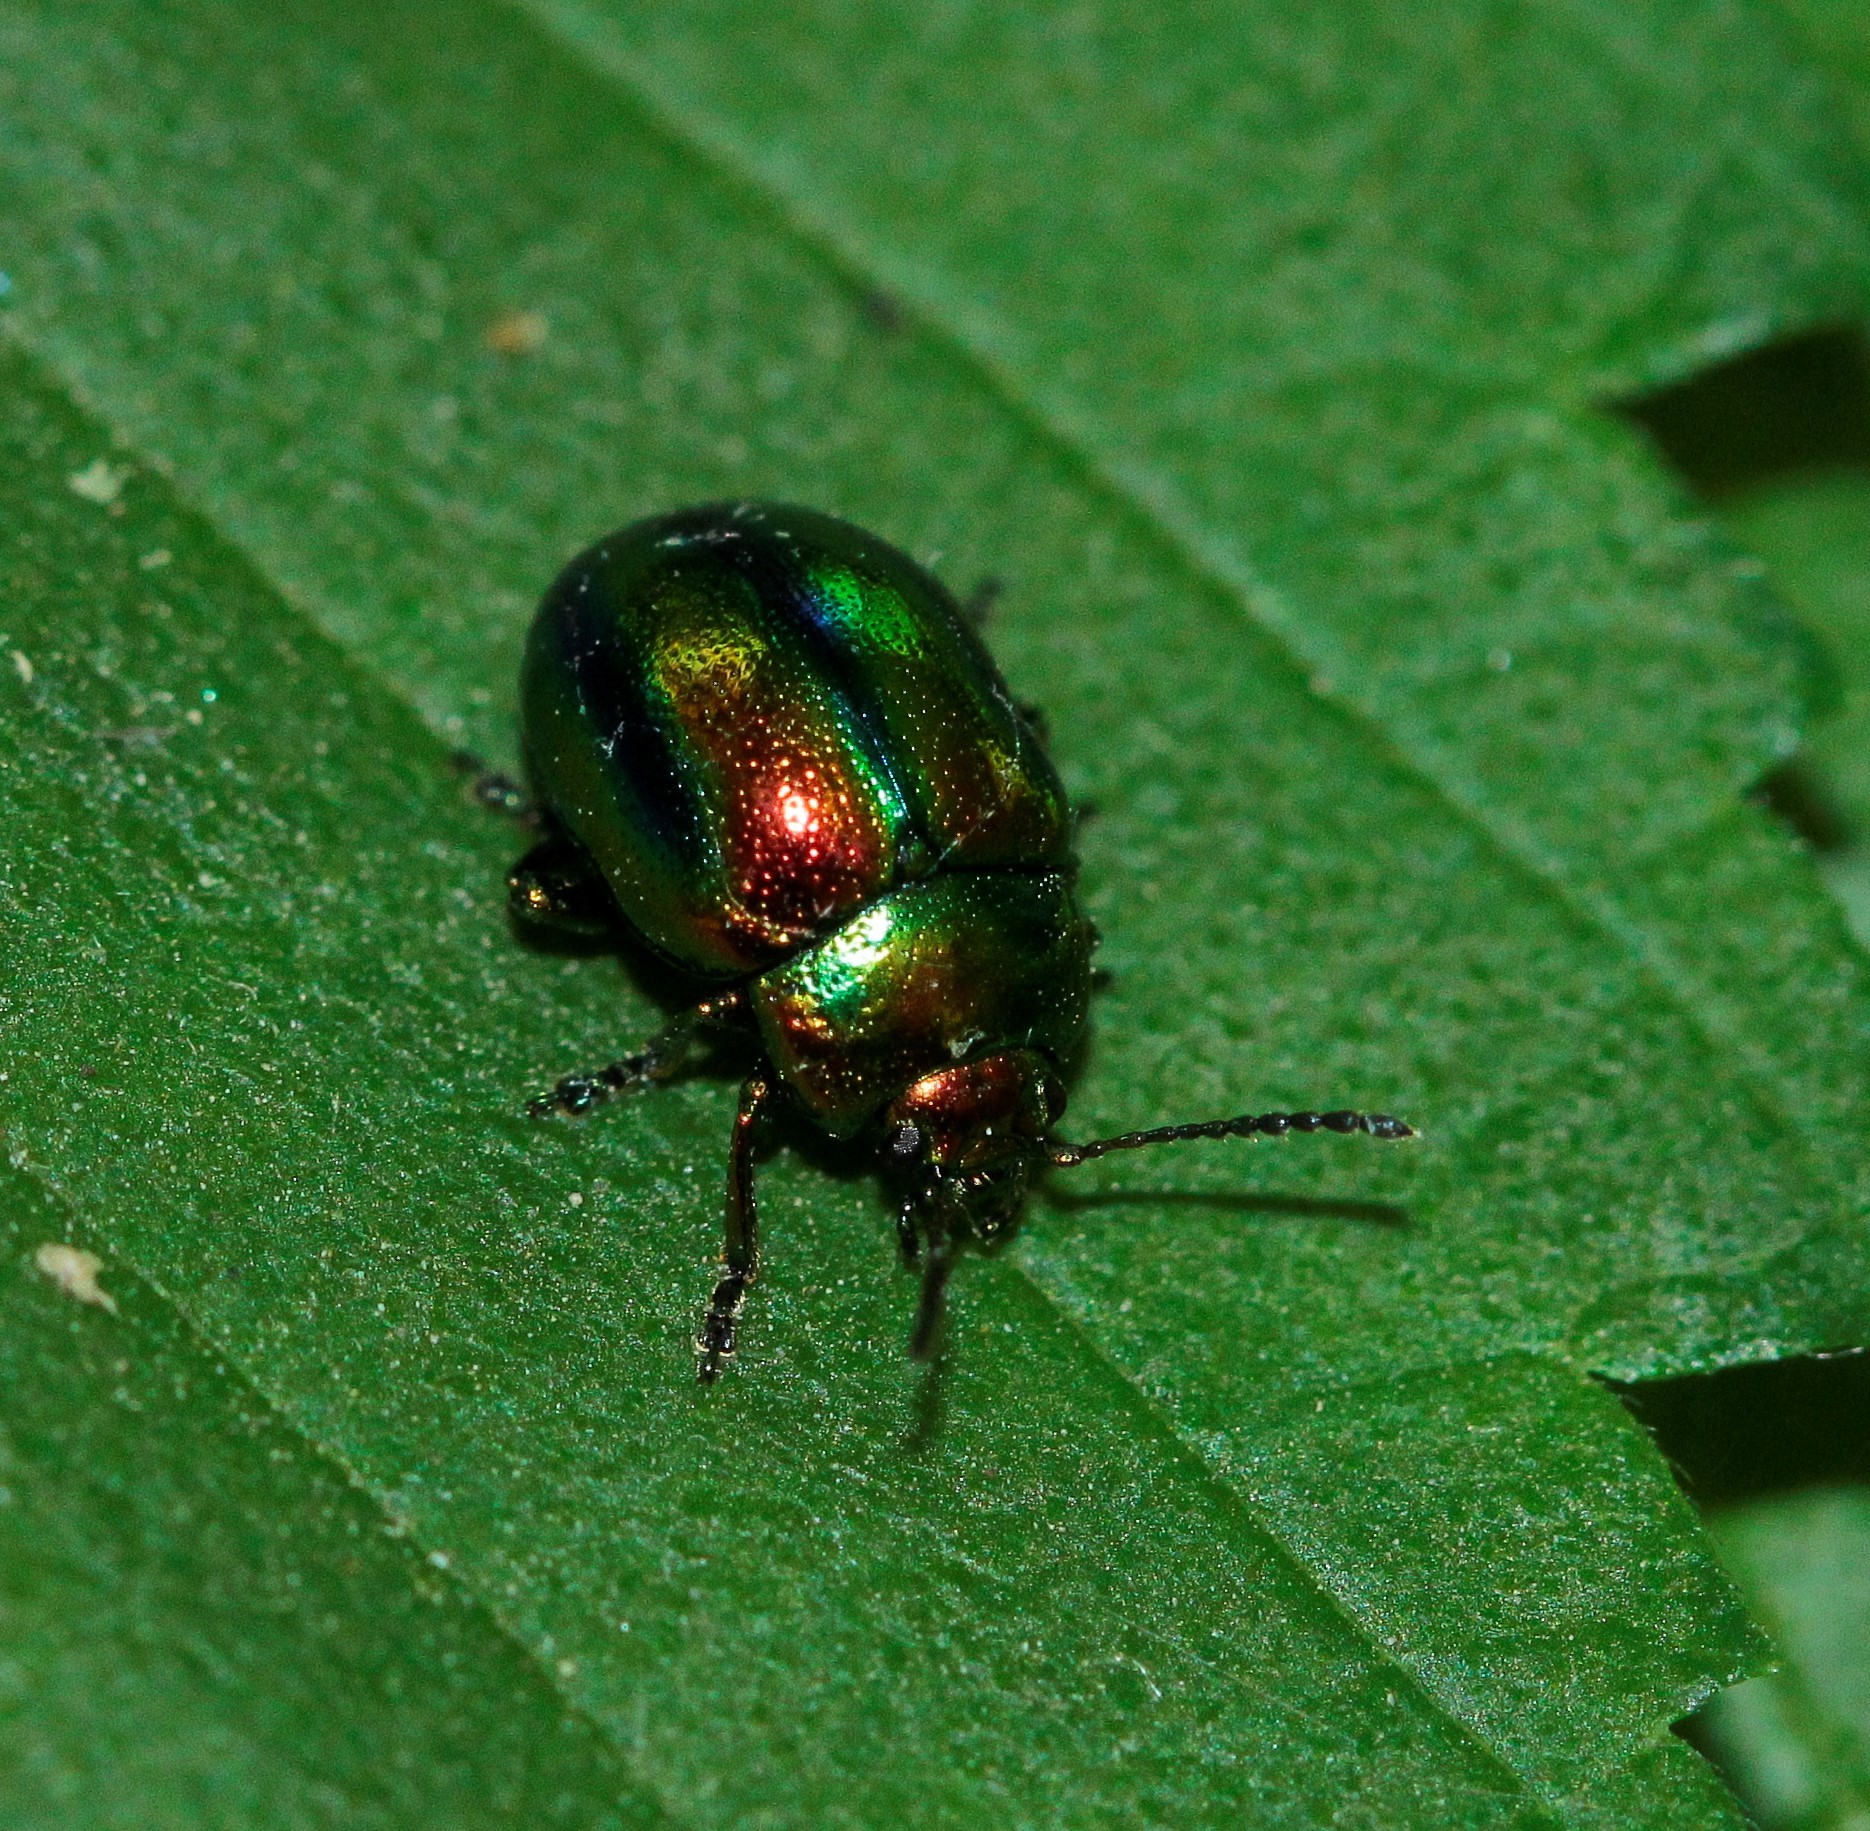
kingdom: Animalia
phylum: Arthropoda
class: Insecta
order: Coleoptera
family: Chrysomelidae
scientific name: Chrysomelidae
